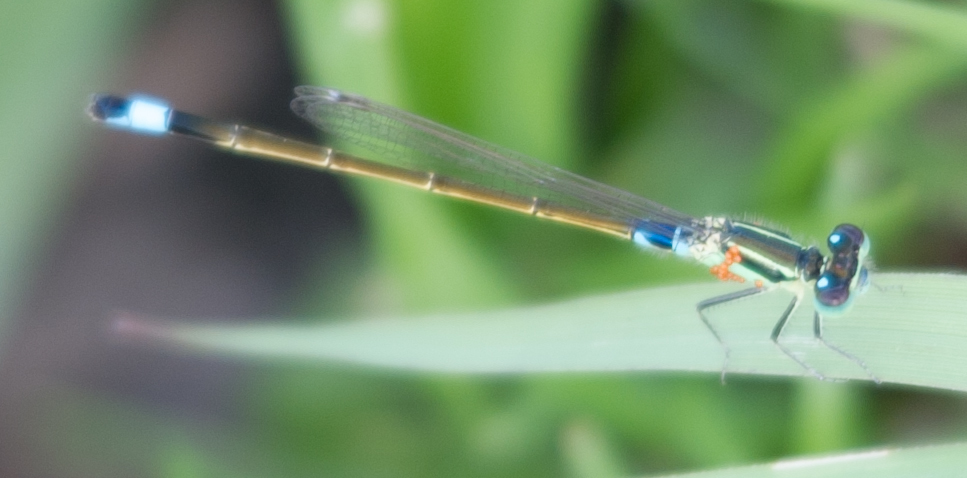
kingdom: Animalia
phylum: Arthropoda
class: Insecta
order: Odonata
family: Coenagrionidae
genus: Ischnura
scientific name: Ischnura senegalensis
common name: Tropical bluetail
